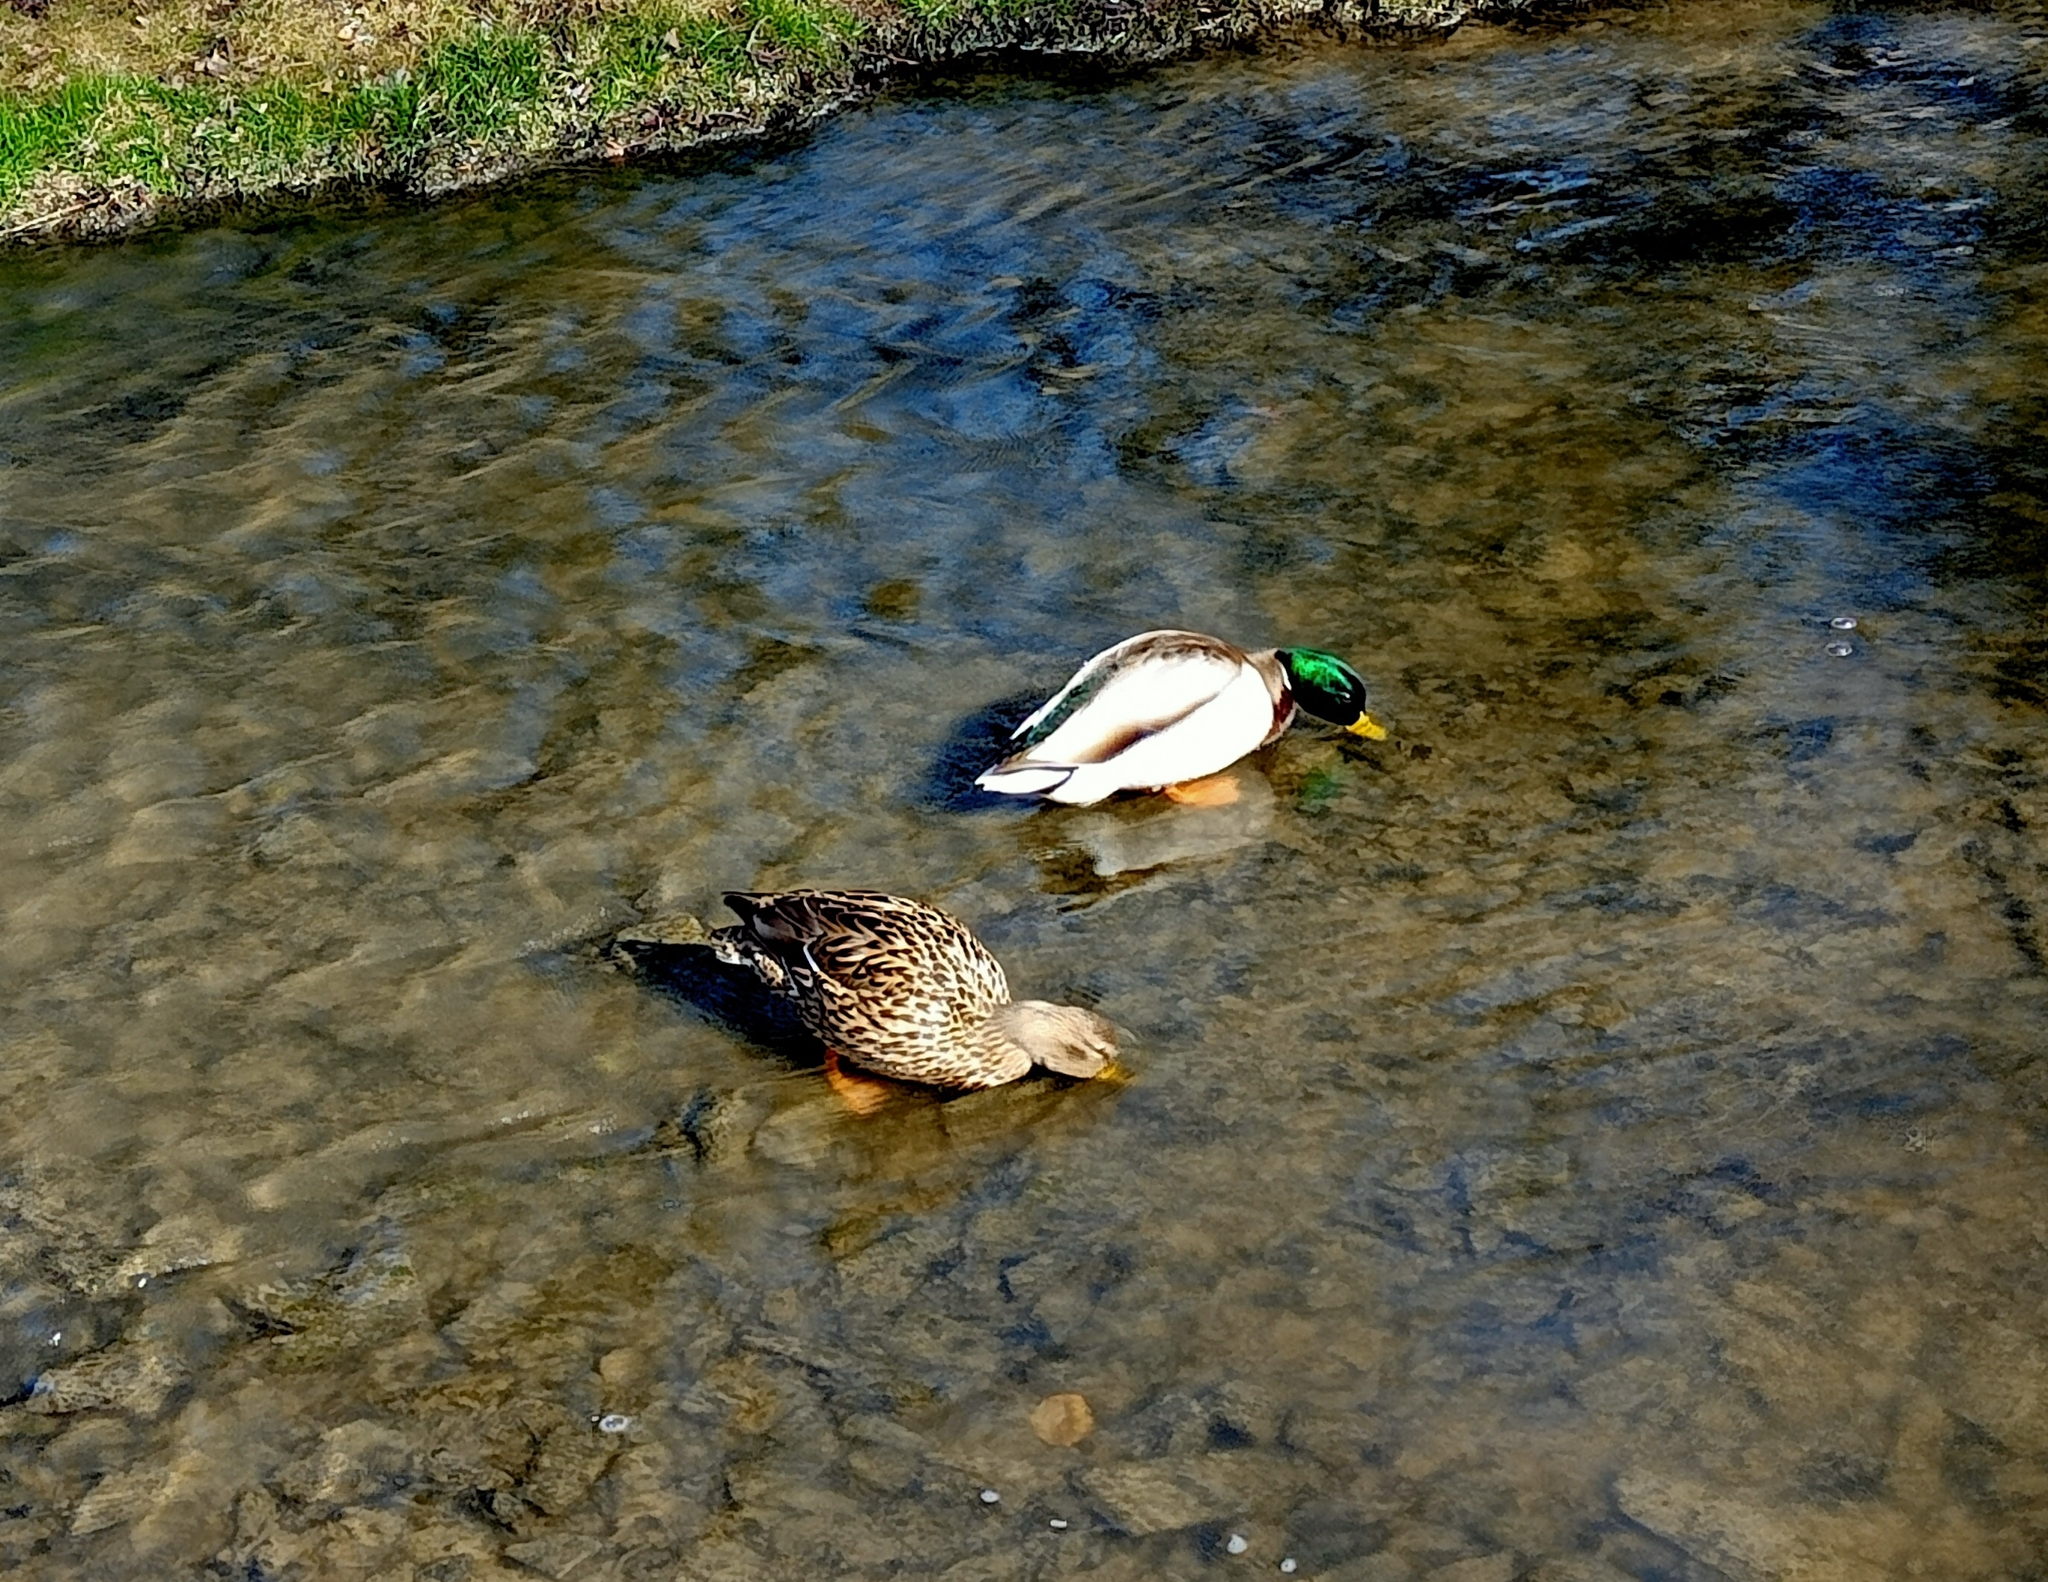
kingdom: Animalia
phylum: Chordata
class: Aves
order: Anseriformes
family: Anatidae
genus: Anas
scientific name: Anas platyrhynchos
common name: Mallard
